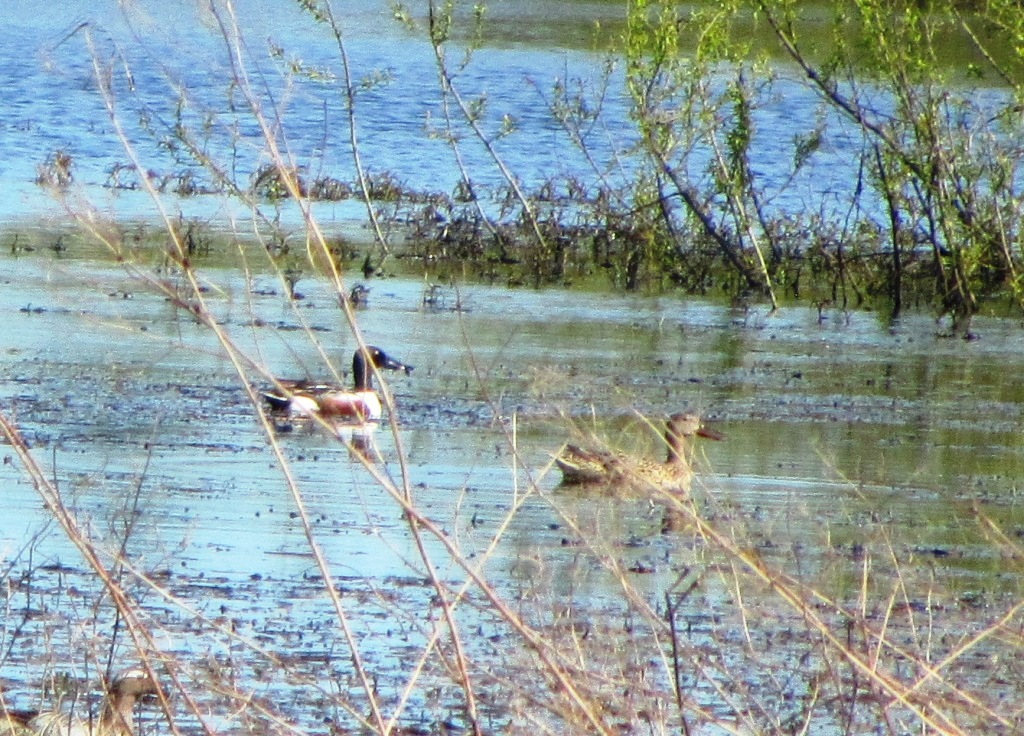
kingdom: Animalia
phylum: Chordata
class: Aves
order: Anseriformes
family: Anatidae
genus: Spatula
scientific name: Spatula clypeata
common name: Northern shoveler
